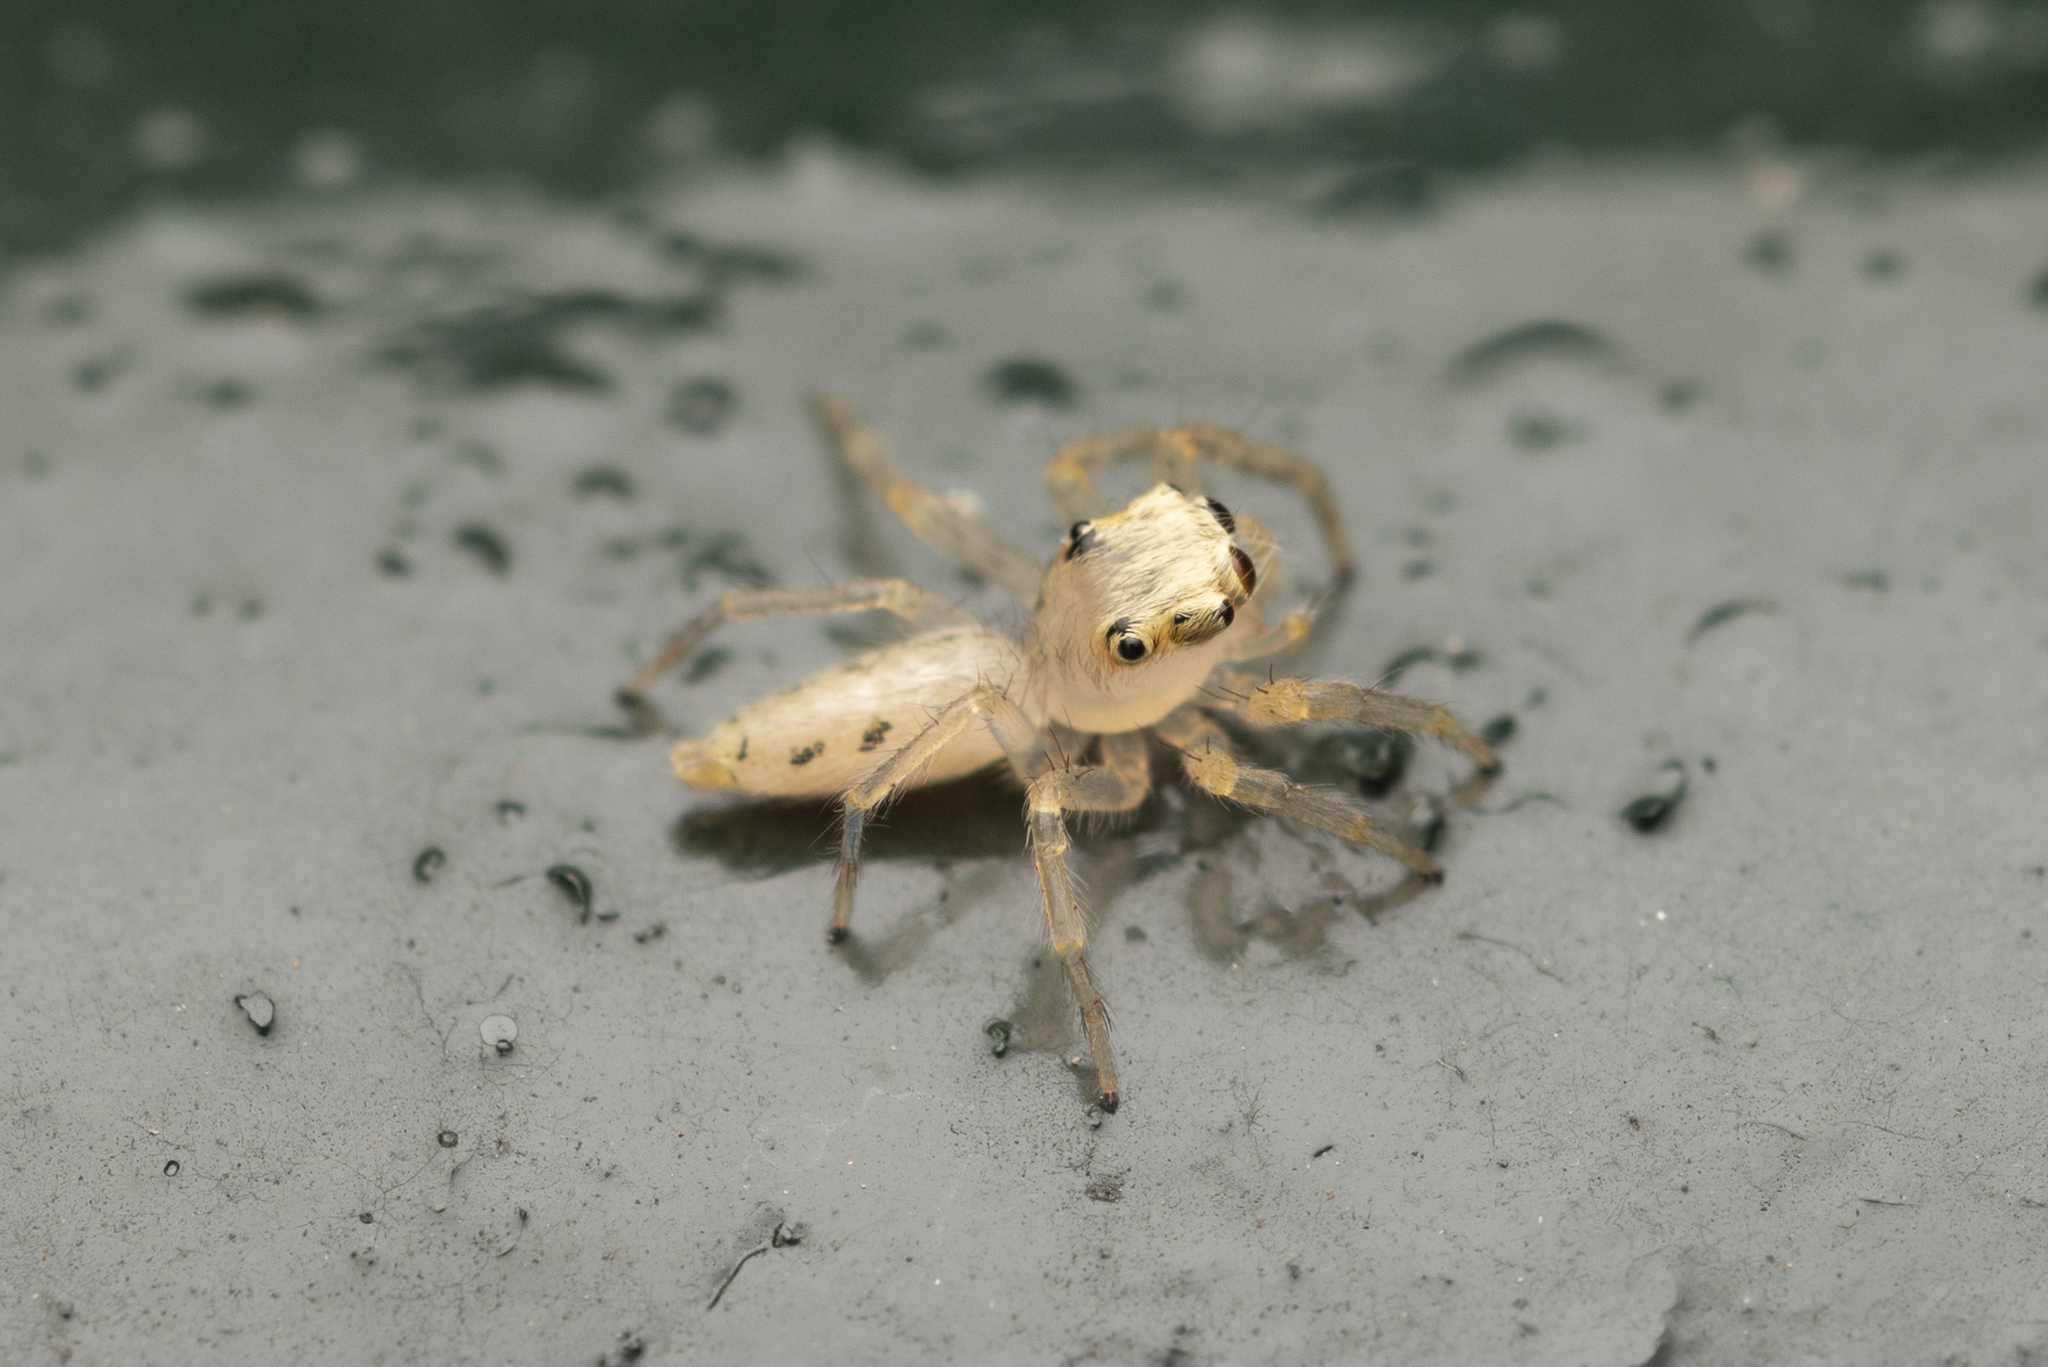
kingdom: Animalia
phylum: Arthropoda
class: Arachnida
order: Araneae
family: Salticidae
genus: Telamonia
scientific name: Telamonia caprina
